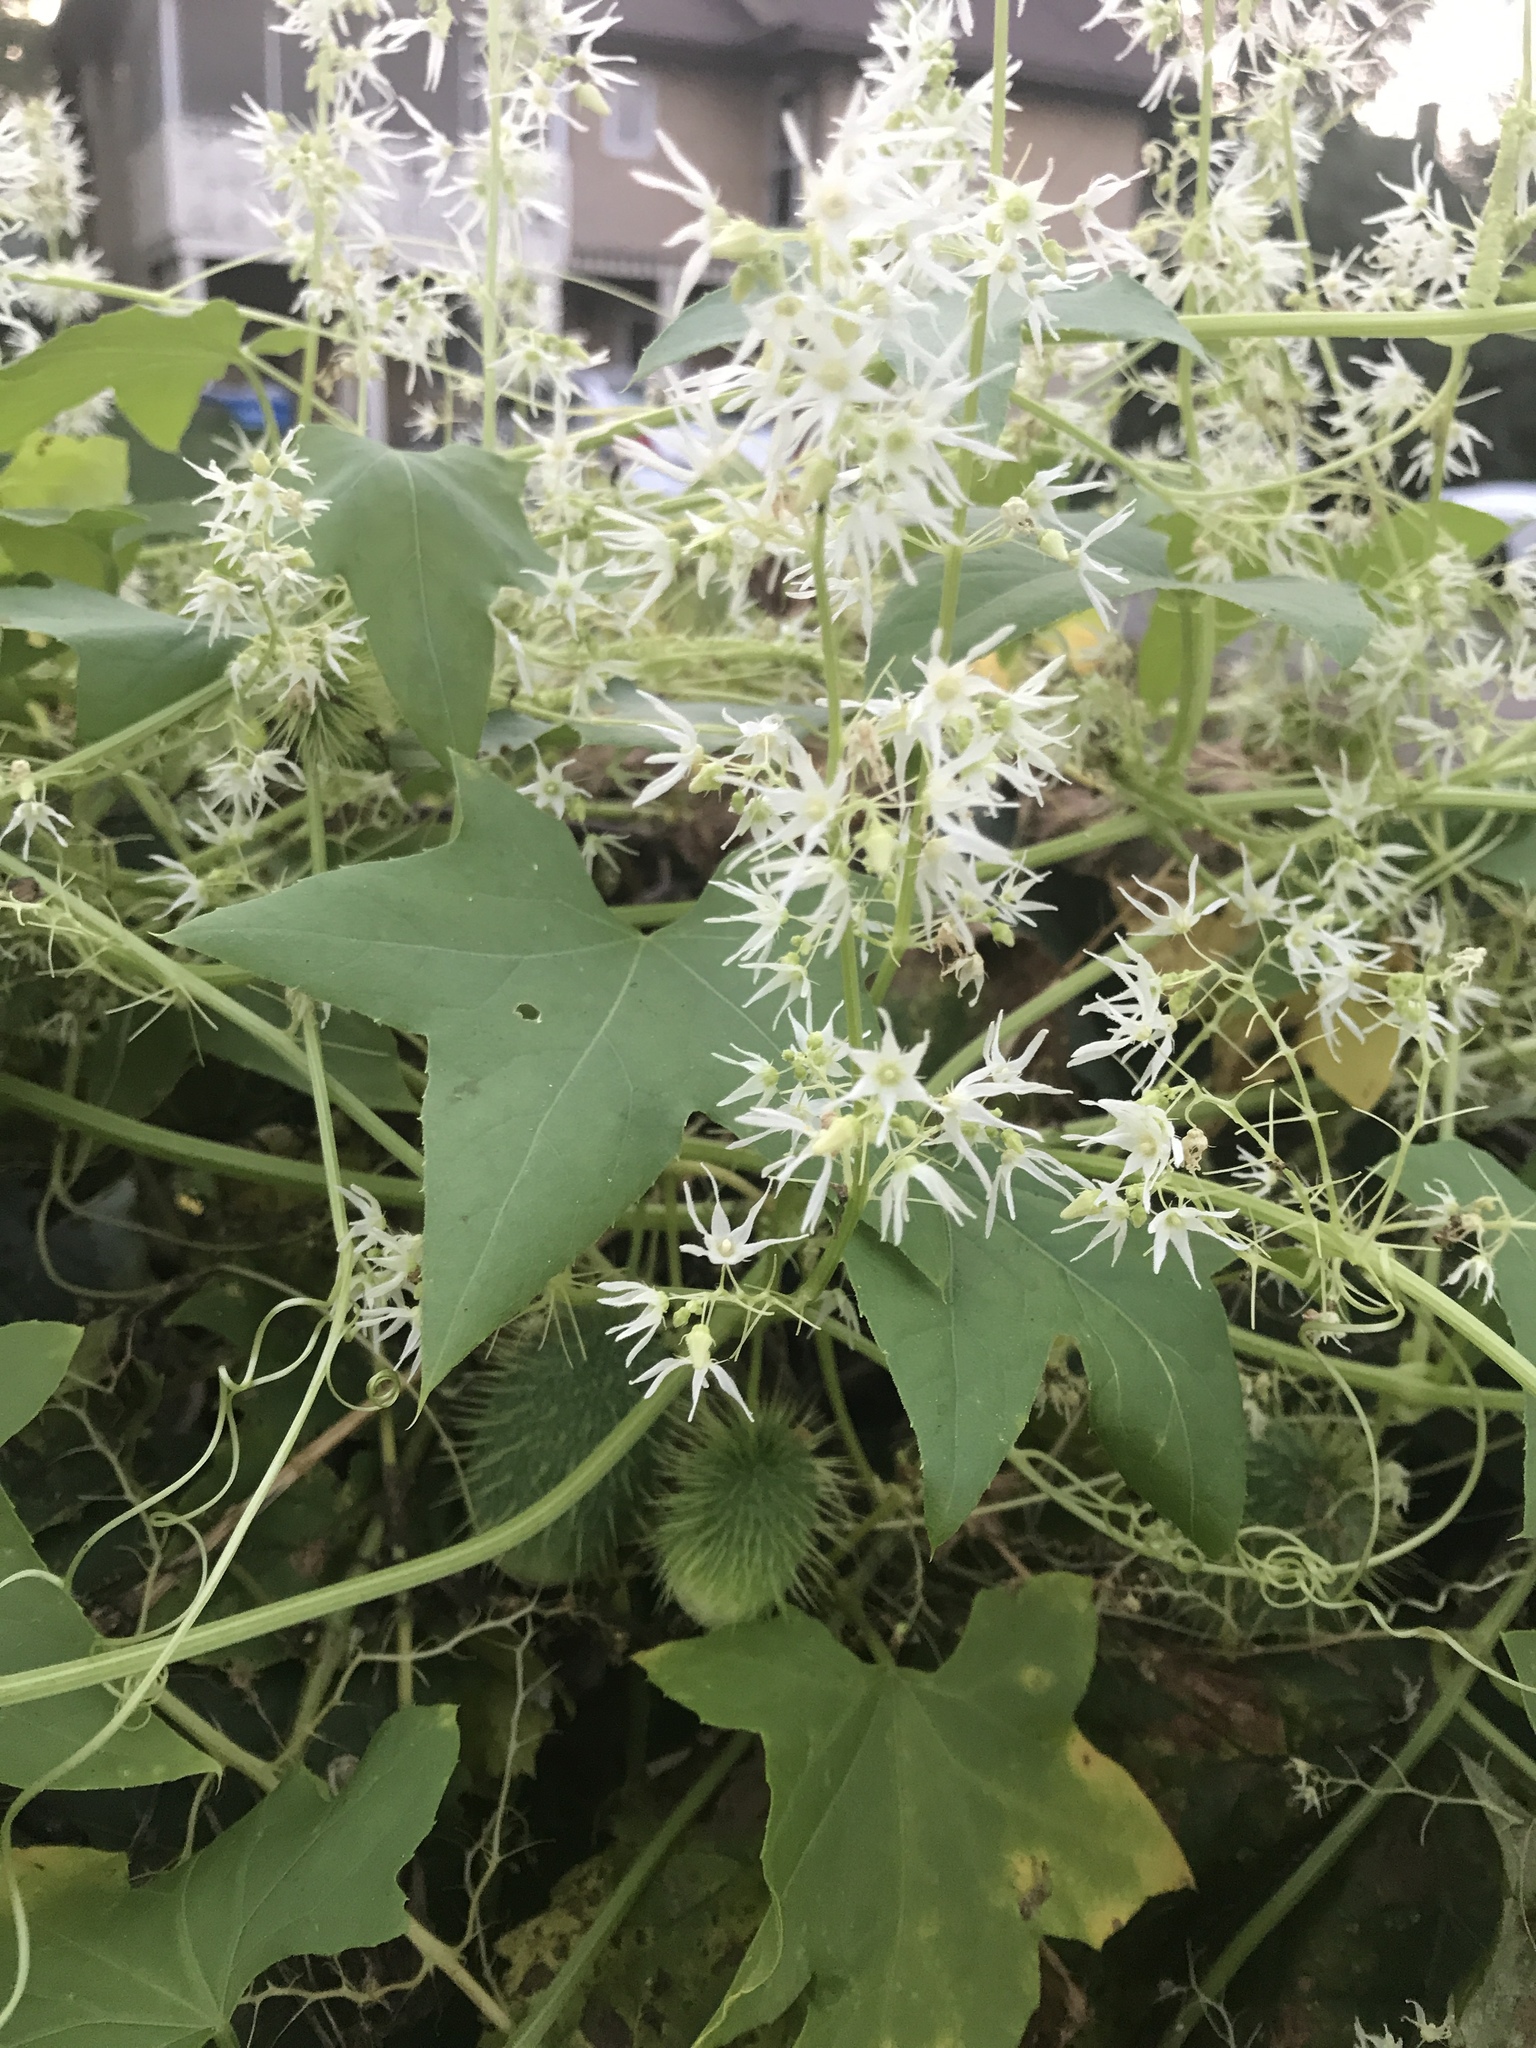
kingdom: Plantae
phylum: Tracheophyta
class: Magnoliopsida
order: Cucurbitales
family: Cucurbitaceae
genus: Echinocystis
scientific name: Echinocystis lobata
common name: Wild cucumber
